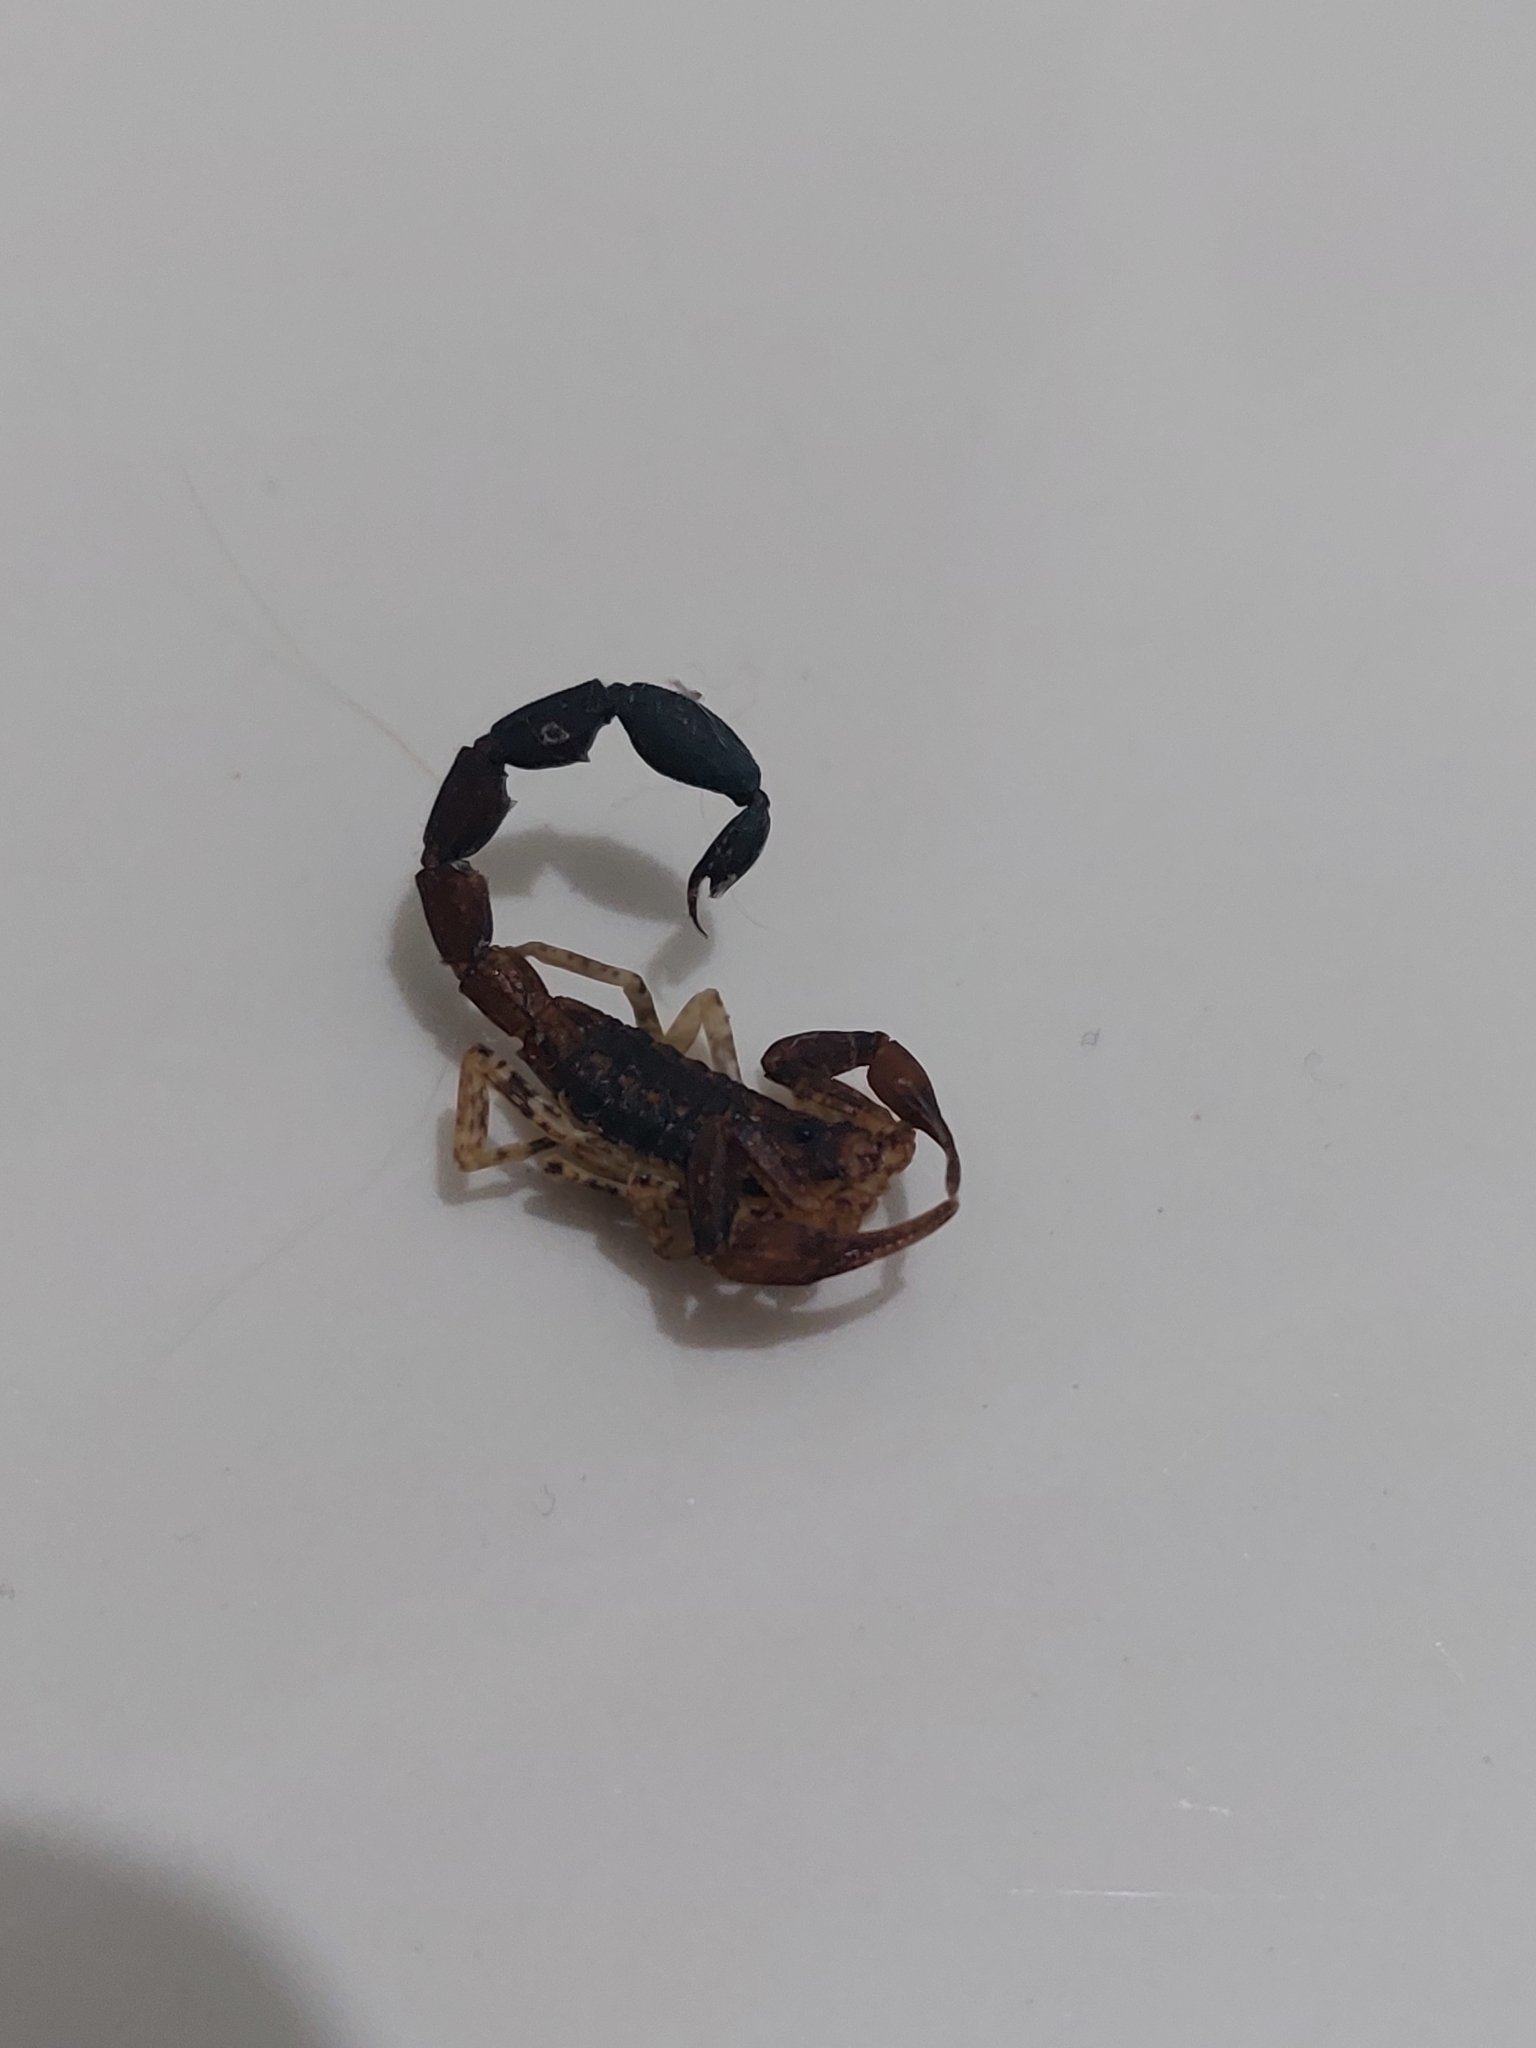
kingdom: Animalia
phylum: Arthropoda
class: Arachnida
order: Scorpiones
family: Buthidae
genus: Tityus
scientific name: Tityus bastosi
